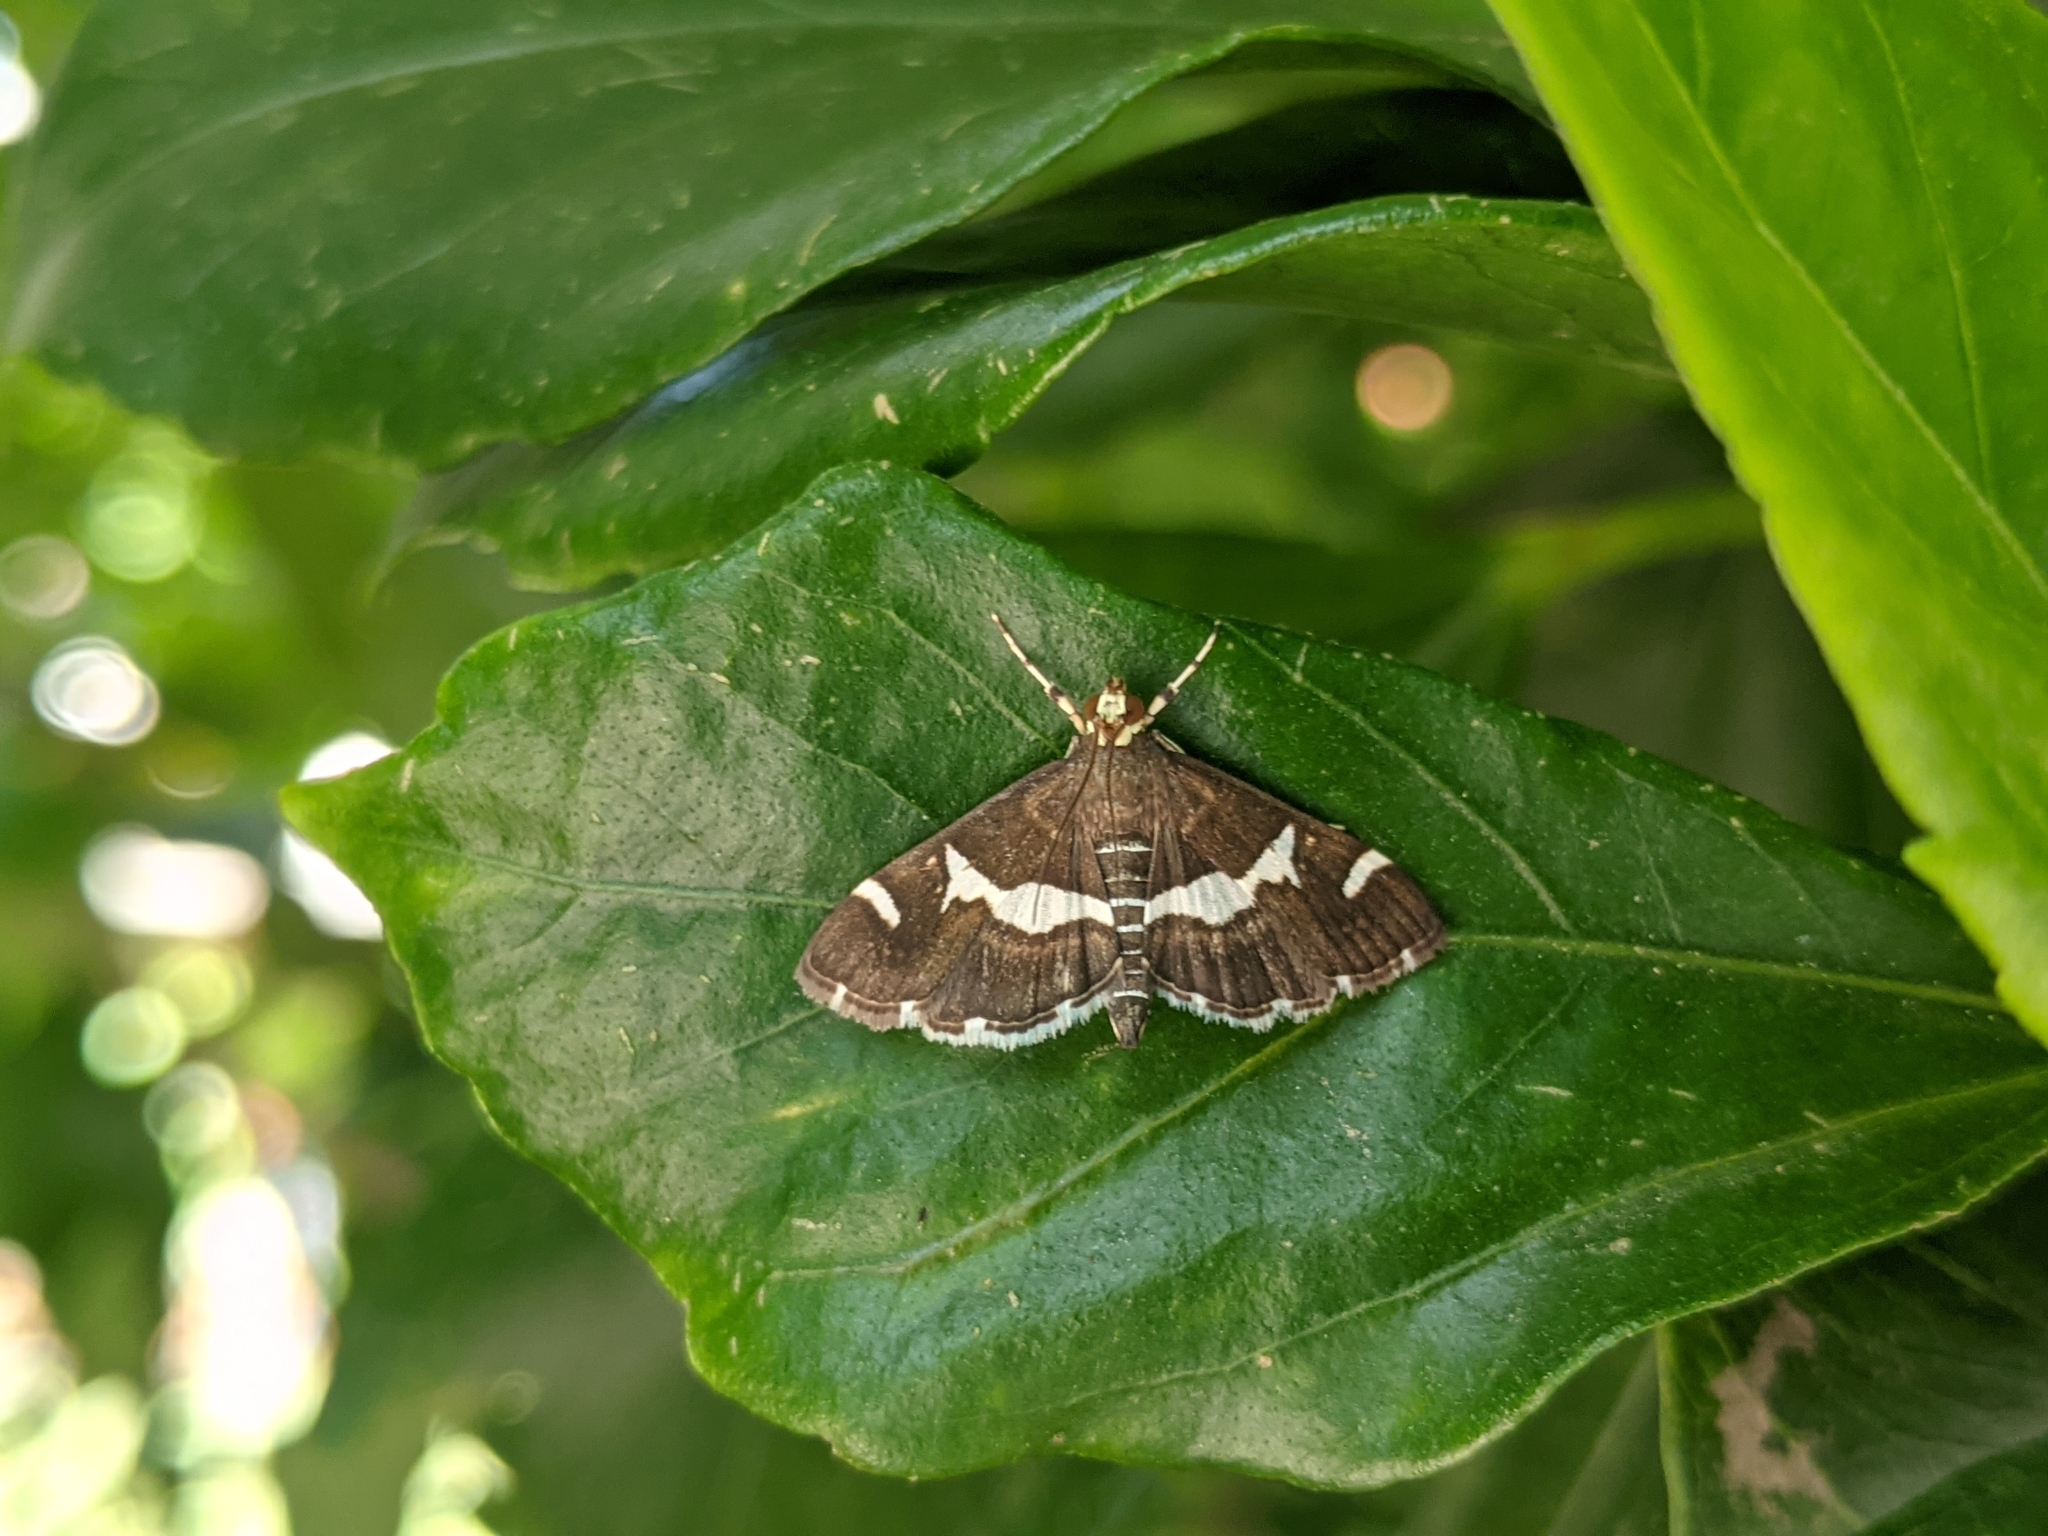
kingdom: Animalia
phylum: Arthropoda
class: Insecta
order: Lepidoptera
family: Crambidae
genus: Spoladea
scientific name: Spoladea recurvalis
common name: Beet webworm moth
